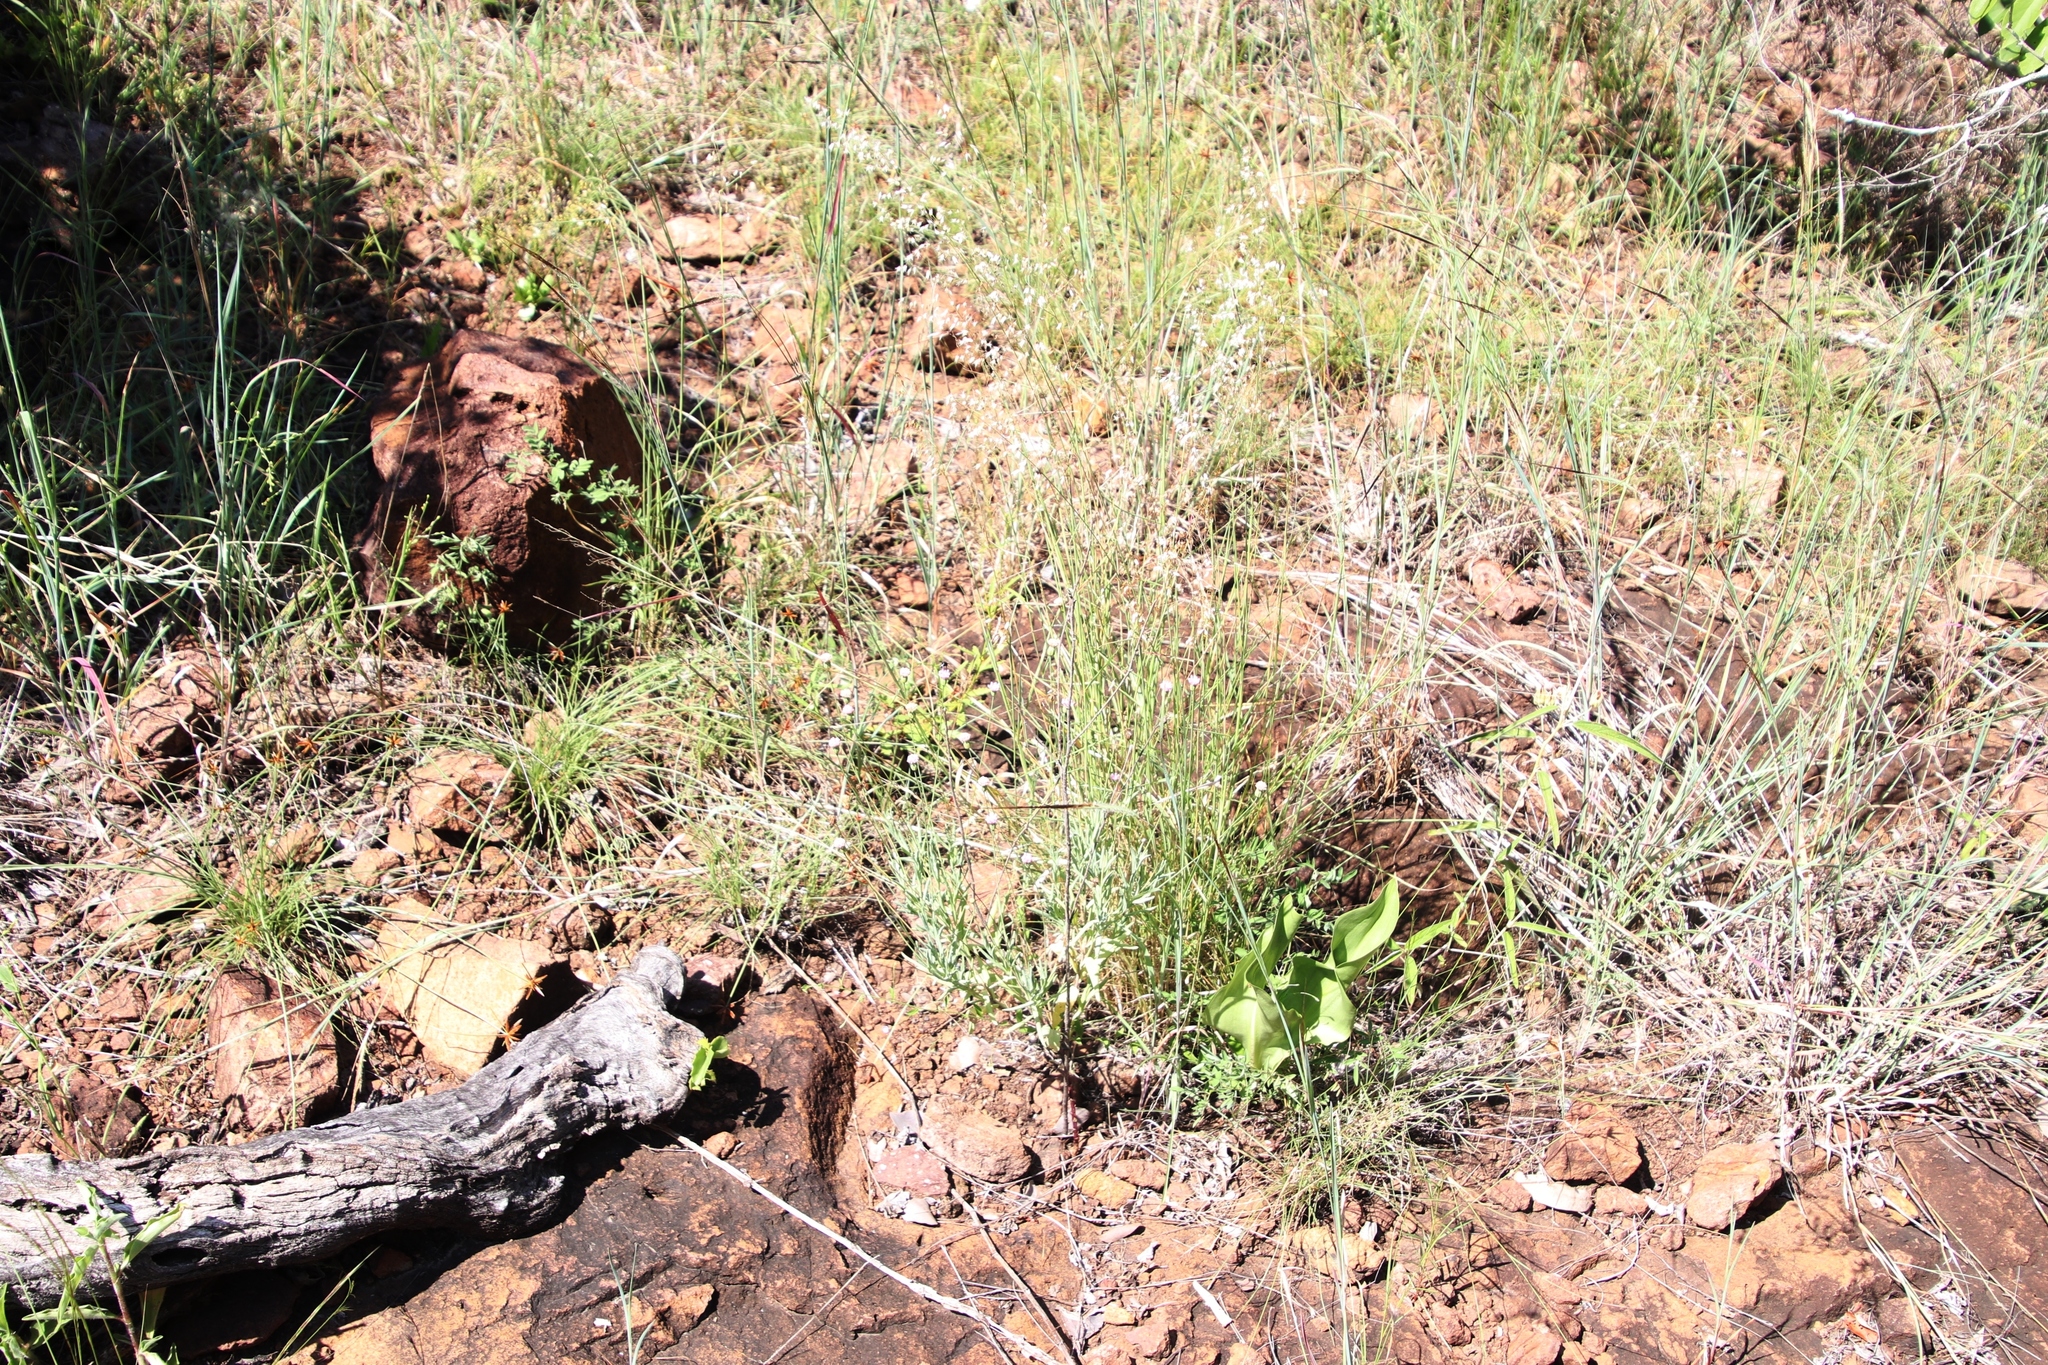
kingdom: Plantae
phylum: Tracheophyta
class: Magnoliopsida
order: Asterales
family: Asteraceae
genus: Emilia
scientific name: Emilia transvaalensis
